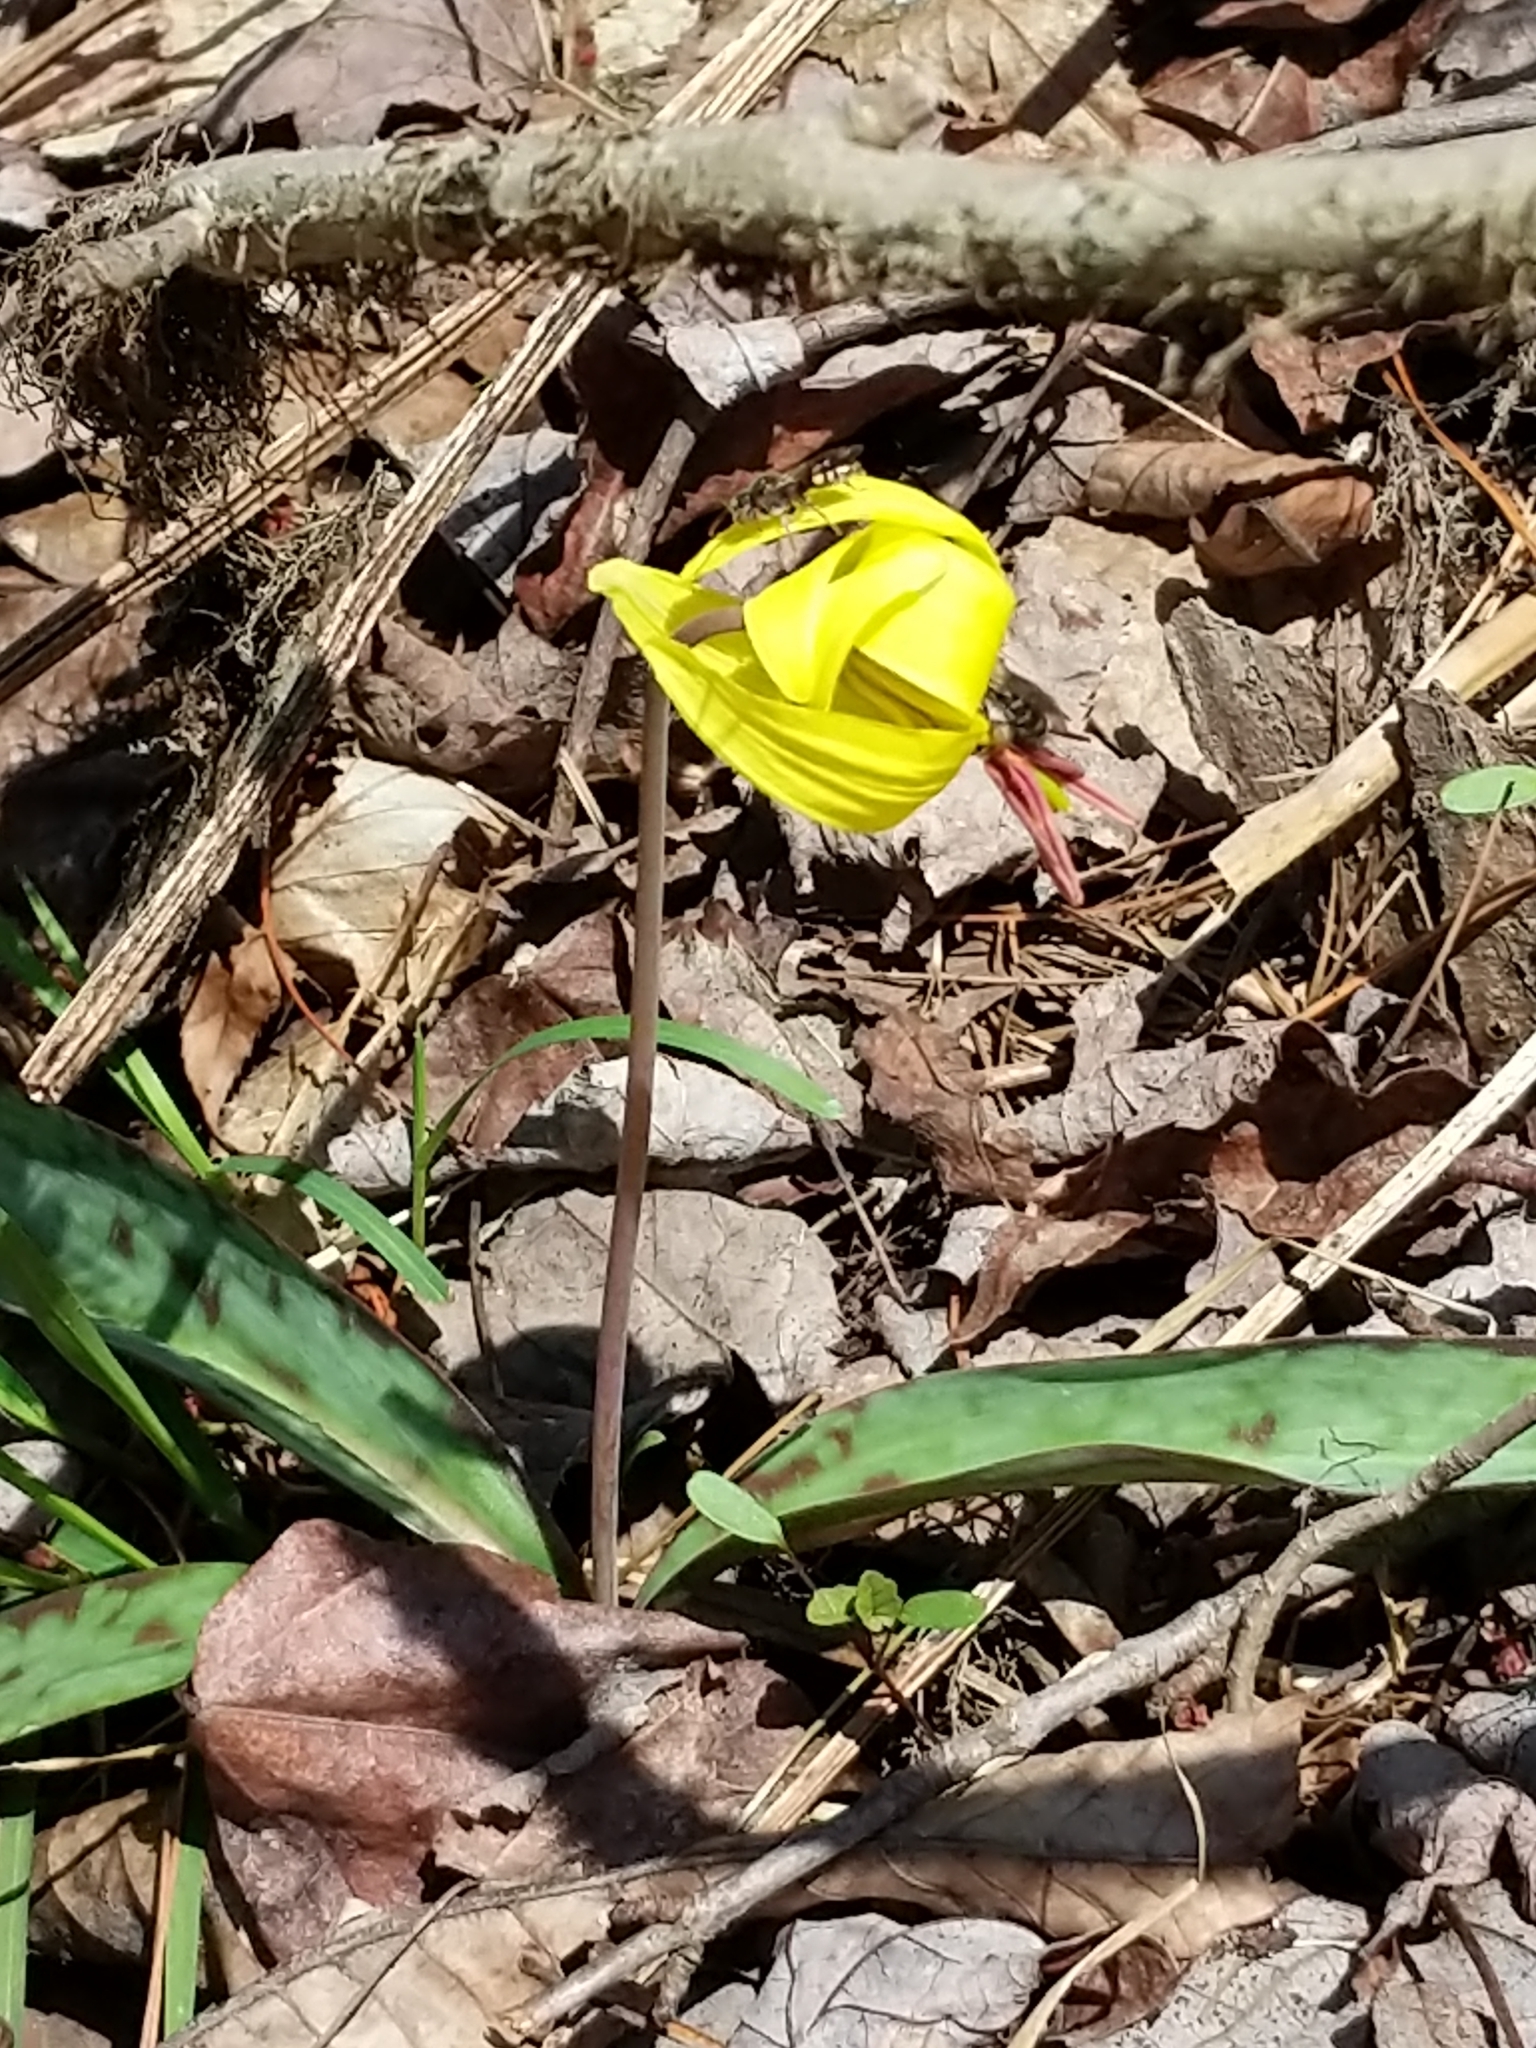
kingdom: Plantae
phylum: Tracheophyta
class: Liliopsida
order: Liliales
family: Liliaceae
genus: Erythronium
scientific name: Erythronium americanum
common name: Yellow adder's-tongue
